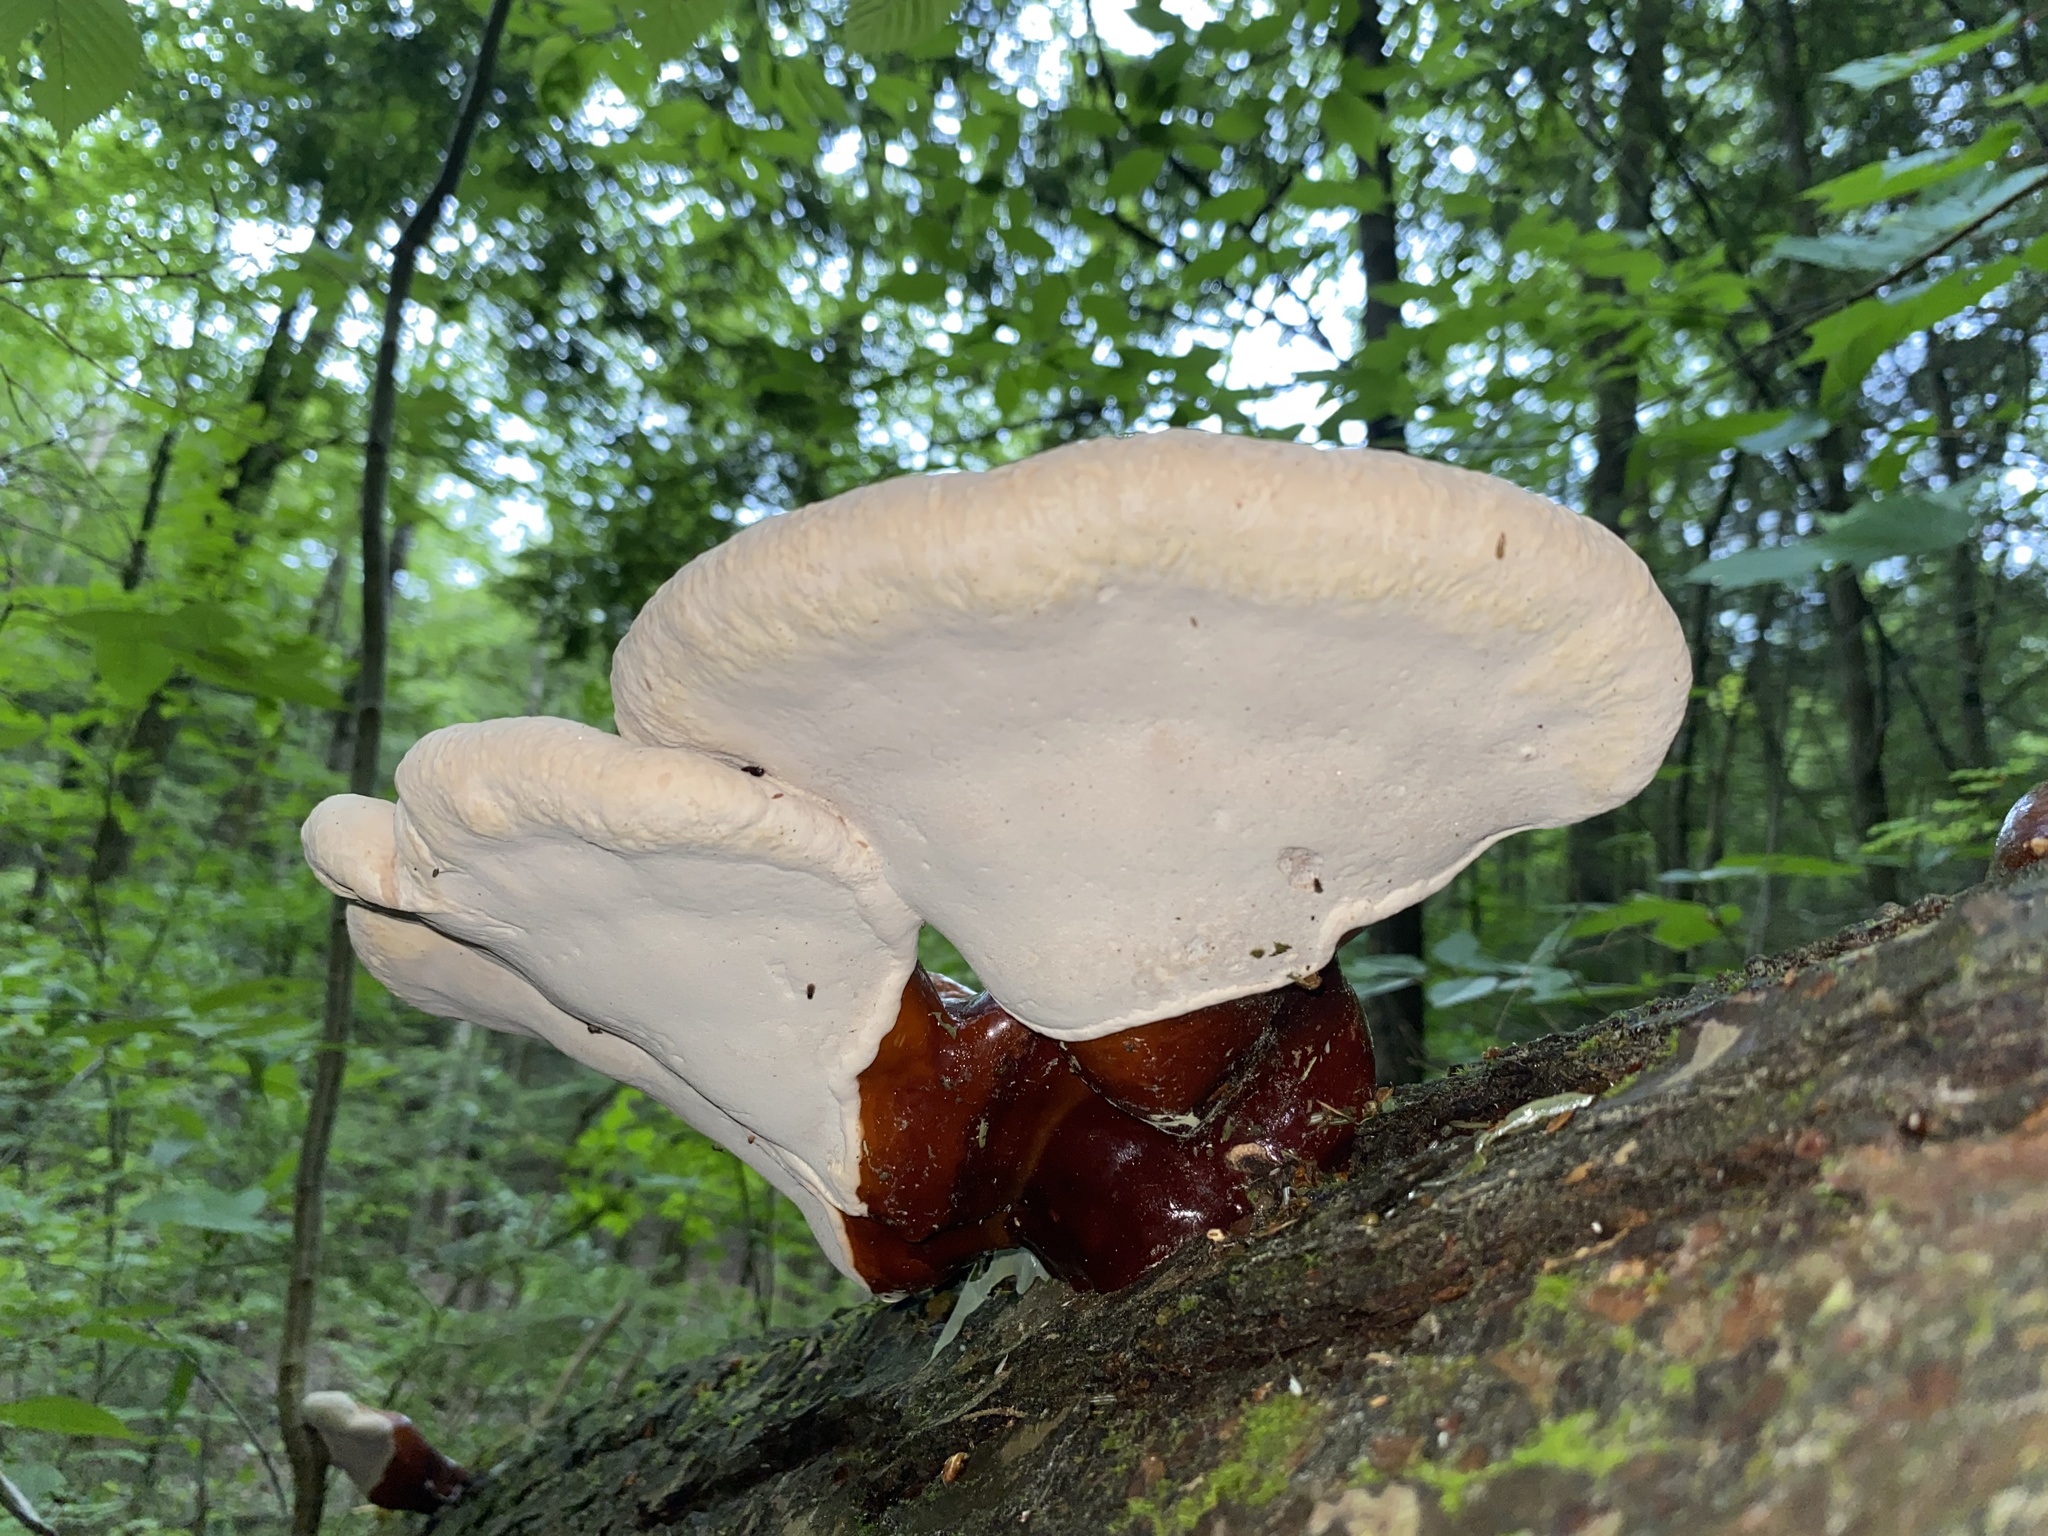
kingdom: Fungi
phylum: Basidiomycota
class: Agaricomycetes
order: Polyporales
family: Polyporaceae
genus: Ganoderma
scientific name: Ganoderma tsugae
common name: Hemlock varnish shelf
